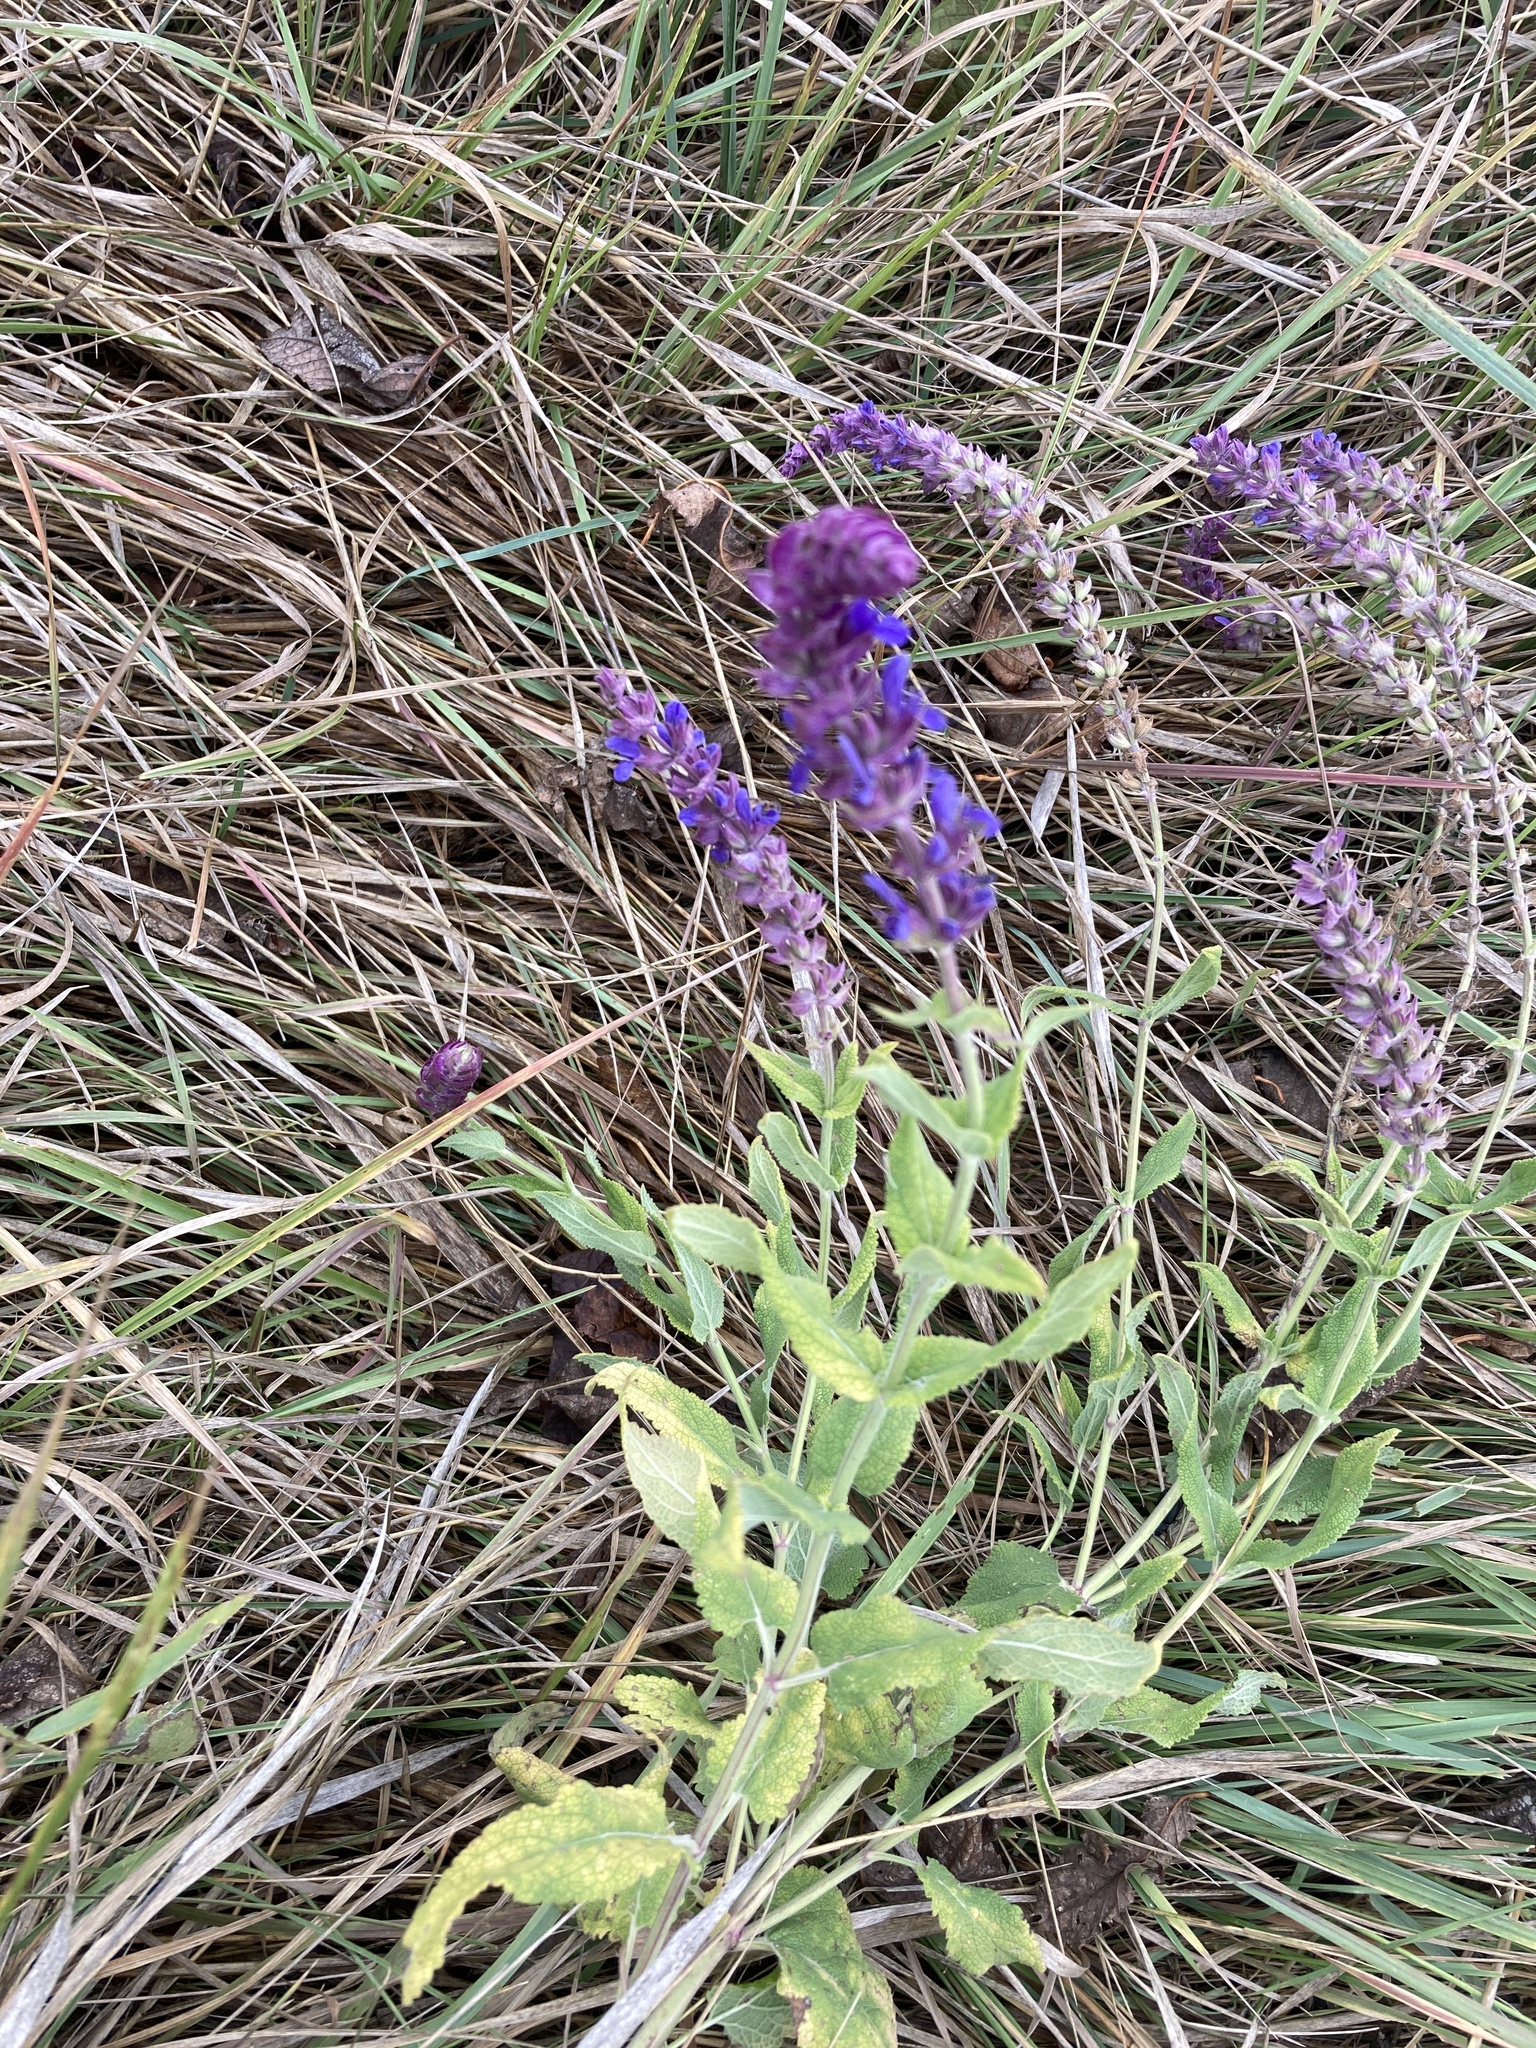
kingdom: Plantae
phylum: Tracheophyta
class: Magnoliopsida
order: Lamiales
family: Lamiaceae
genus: Salvia
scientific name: Salvia nemorosa
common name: Balkan clary
